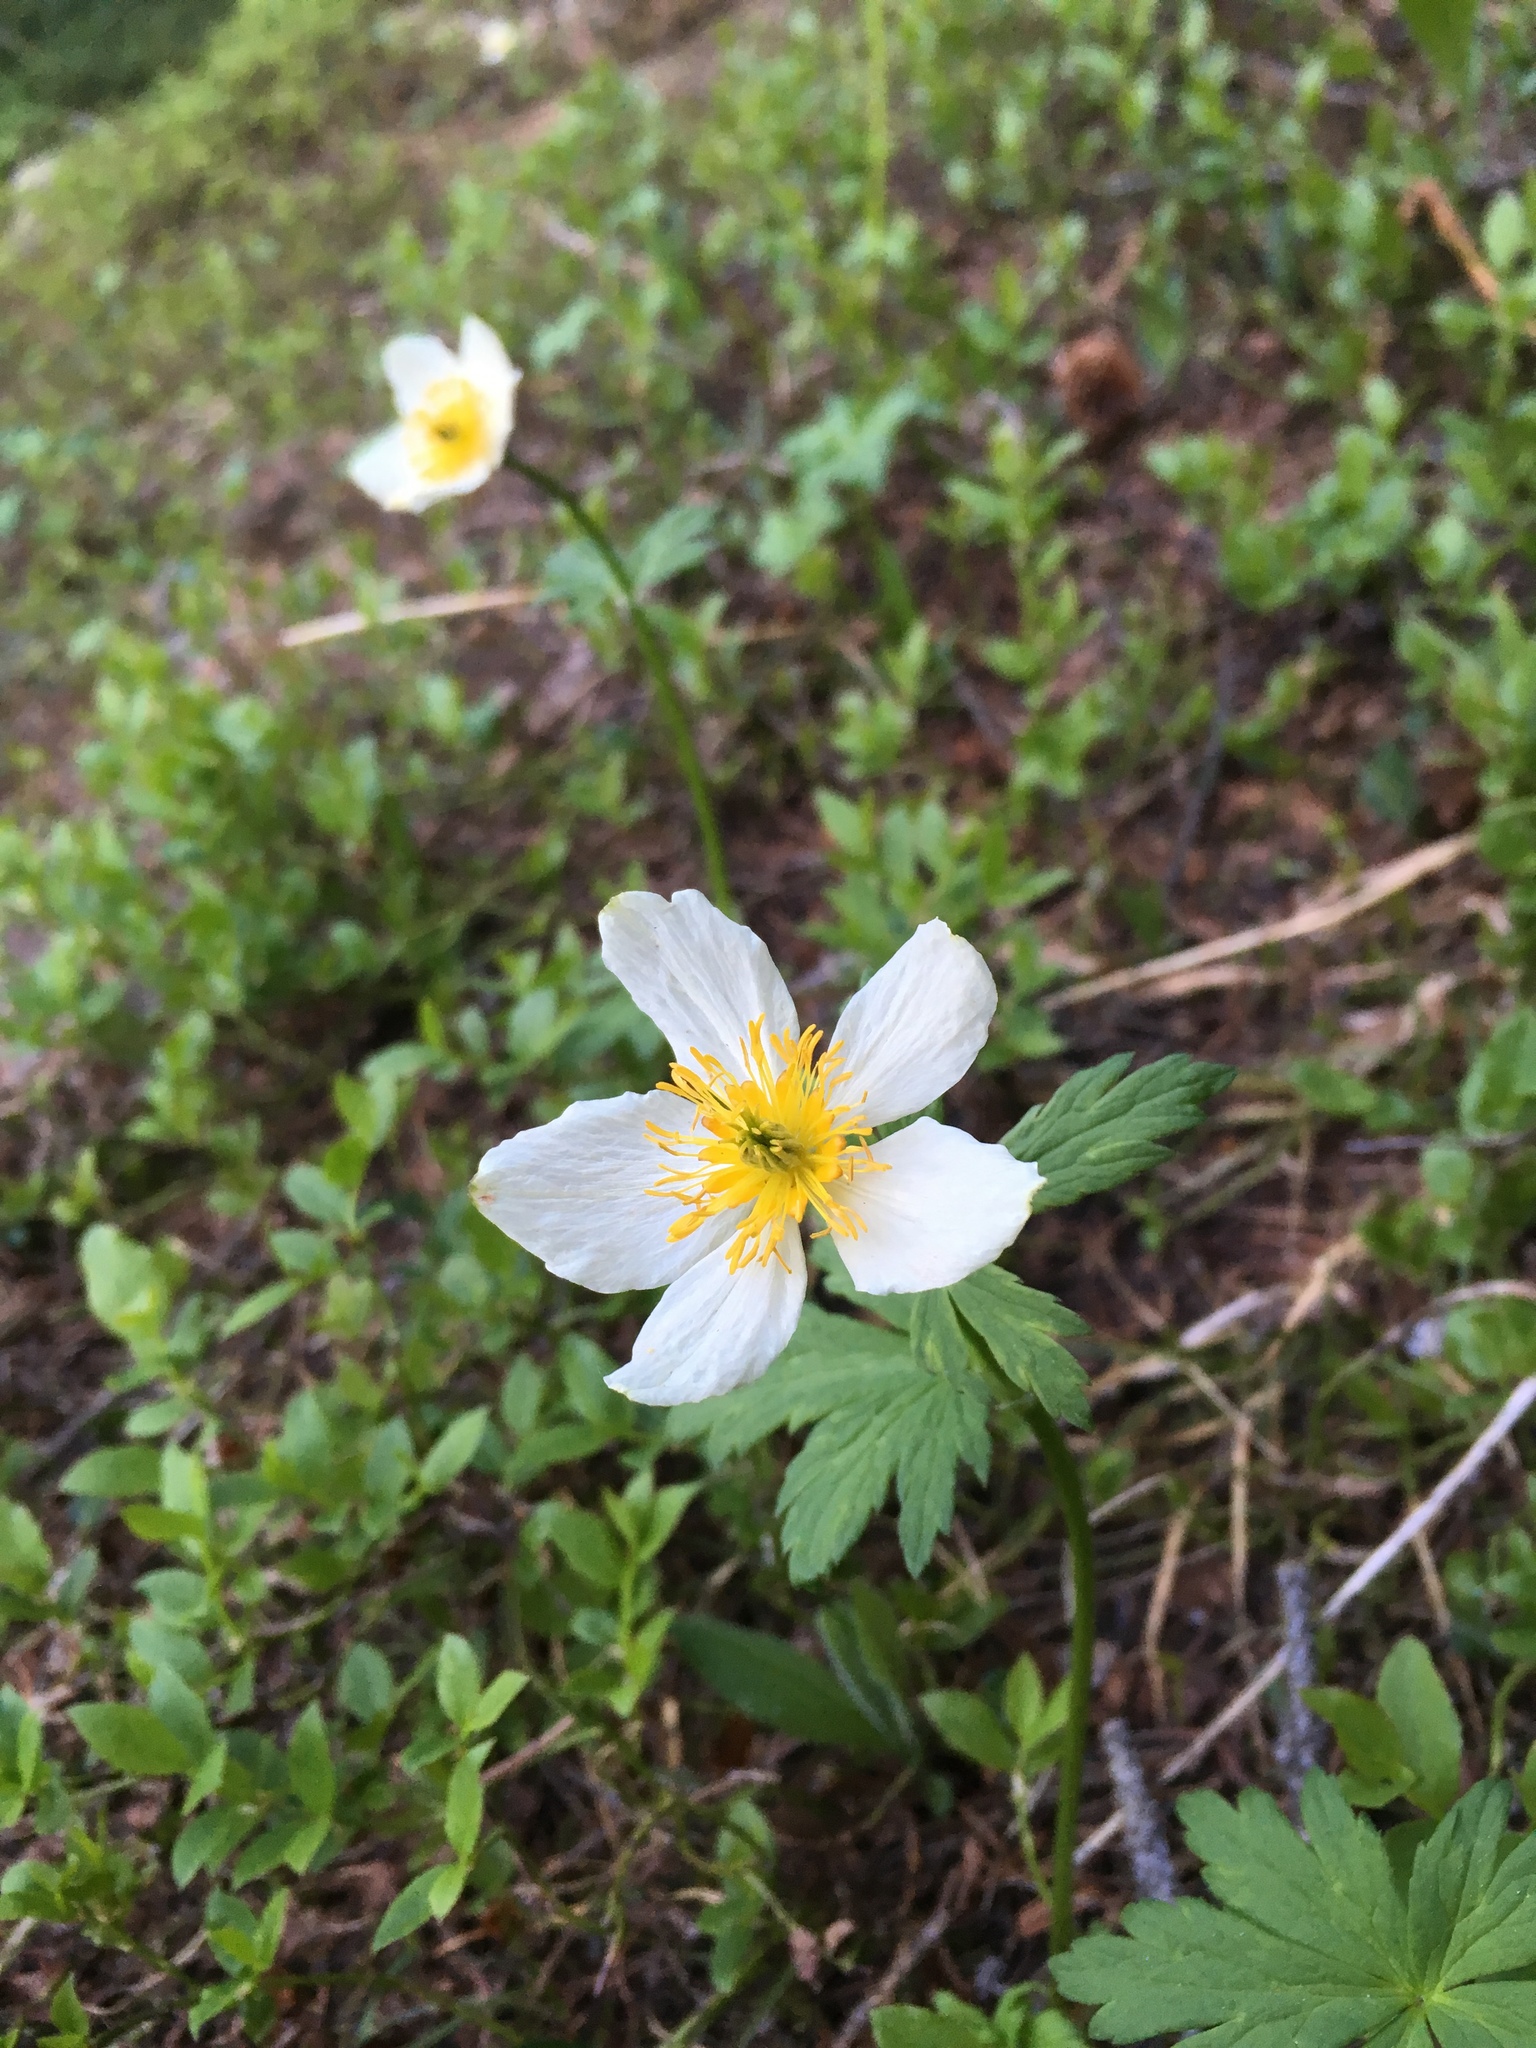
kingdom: Plantae
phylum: Tracheophyta
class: Magnoliopsida
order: Ranunculales
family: Ranunculaceae
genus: Trollius
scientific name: Trollius laxus
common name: American globeflower
